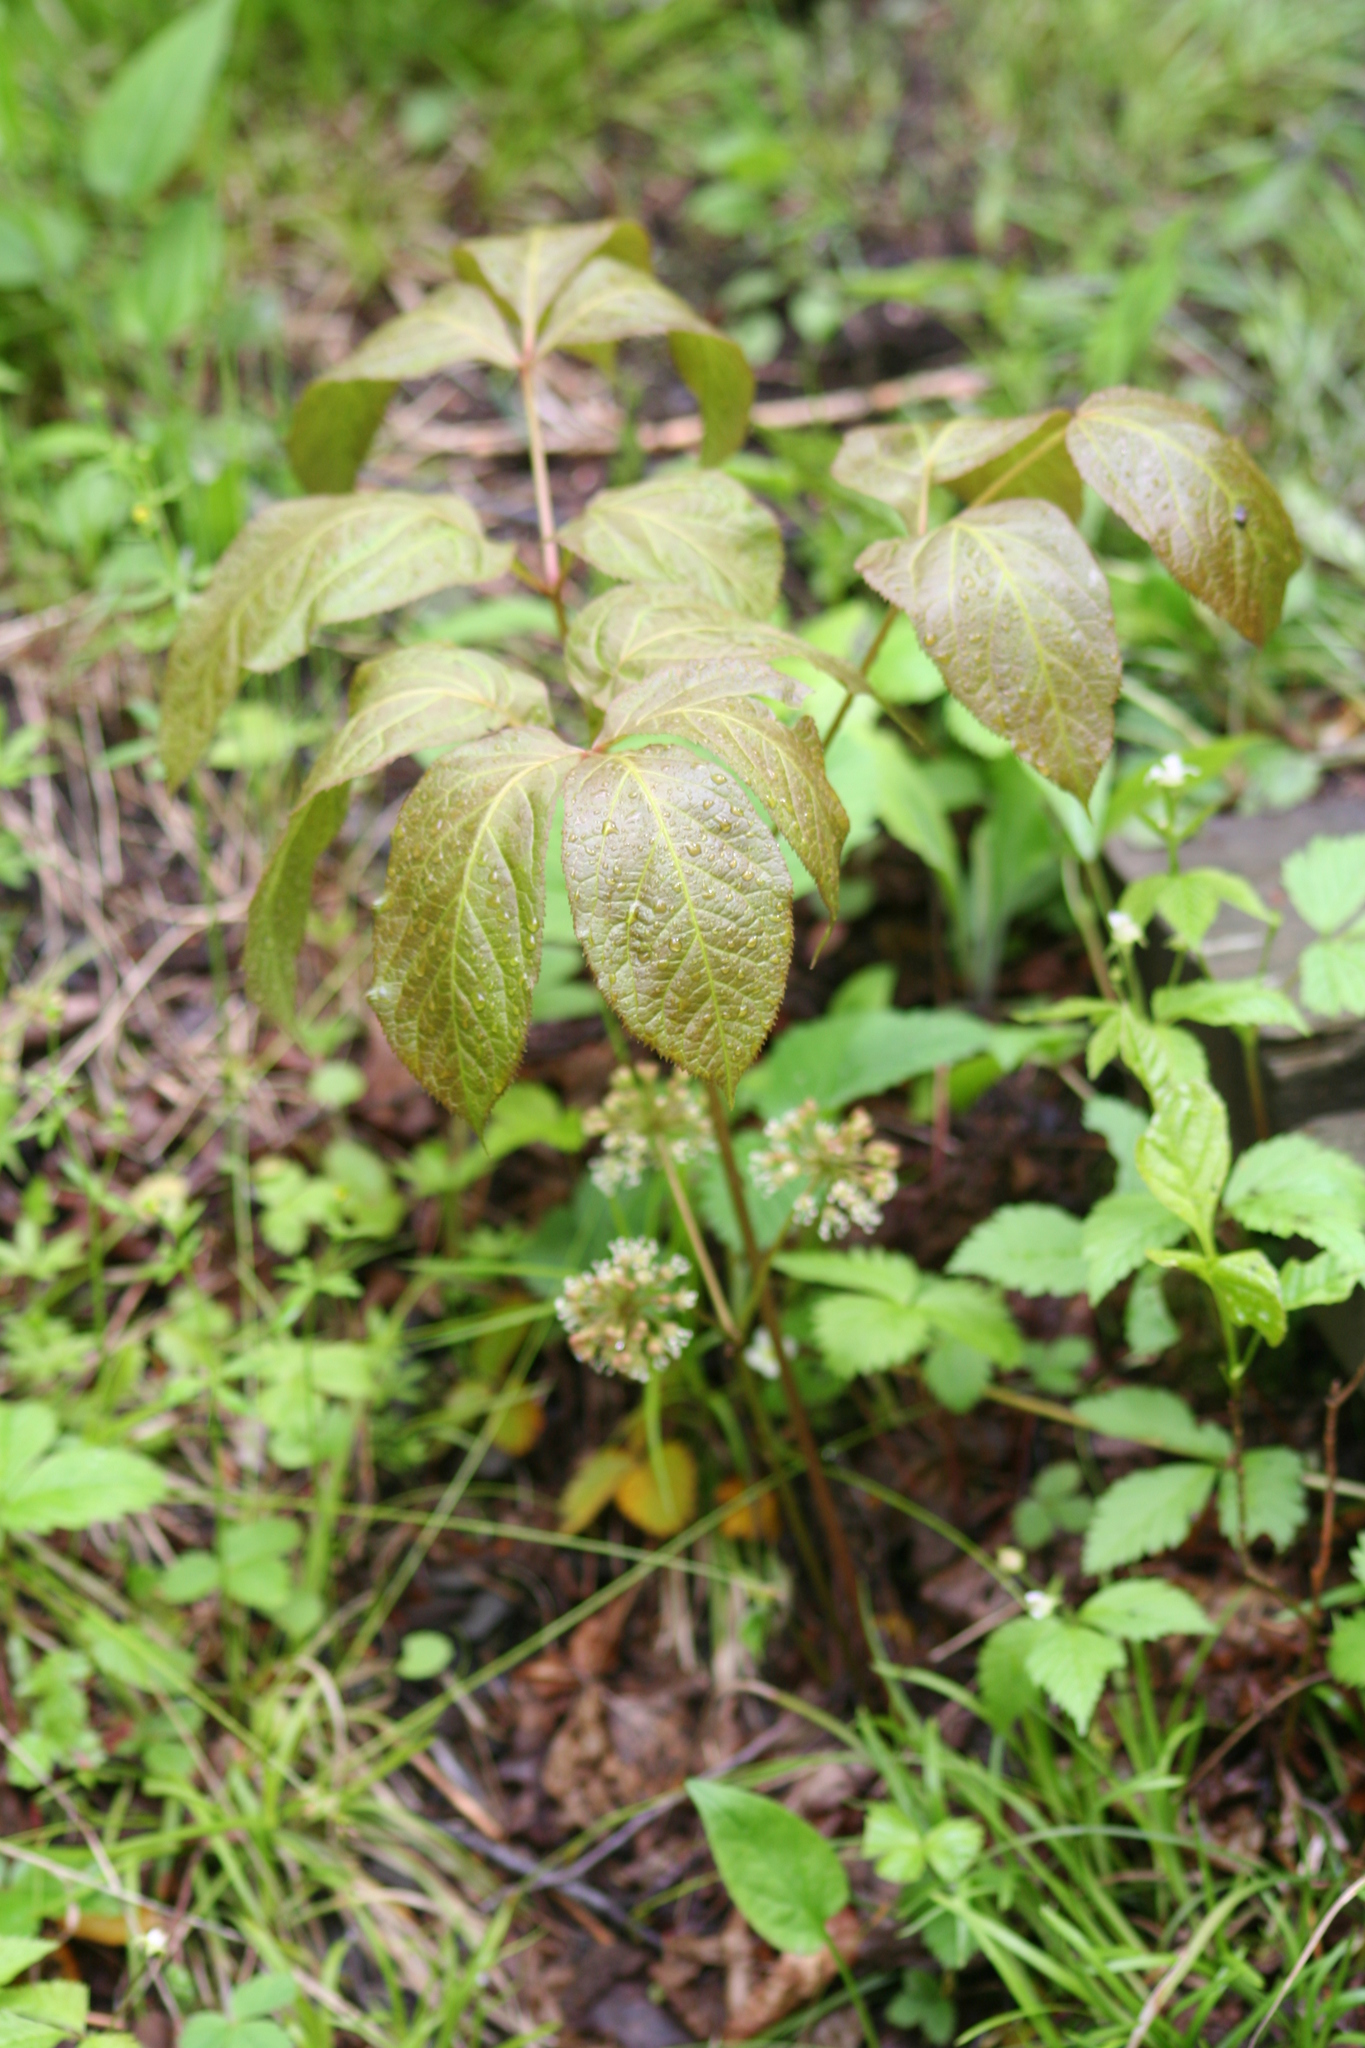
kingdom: Plantae
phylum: Tracheophyta
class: Magnoliopsida
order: Apiales
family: Araliaceae
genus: Aralia
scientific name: Aralia nudicaulis
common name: Wild sarsaparilla
